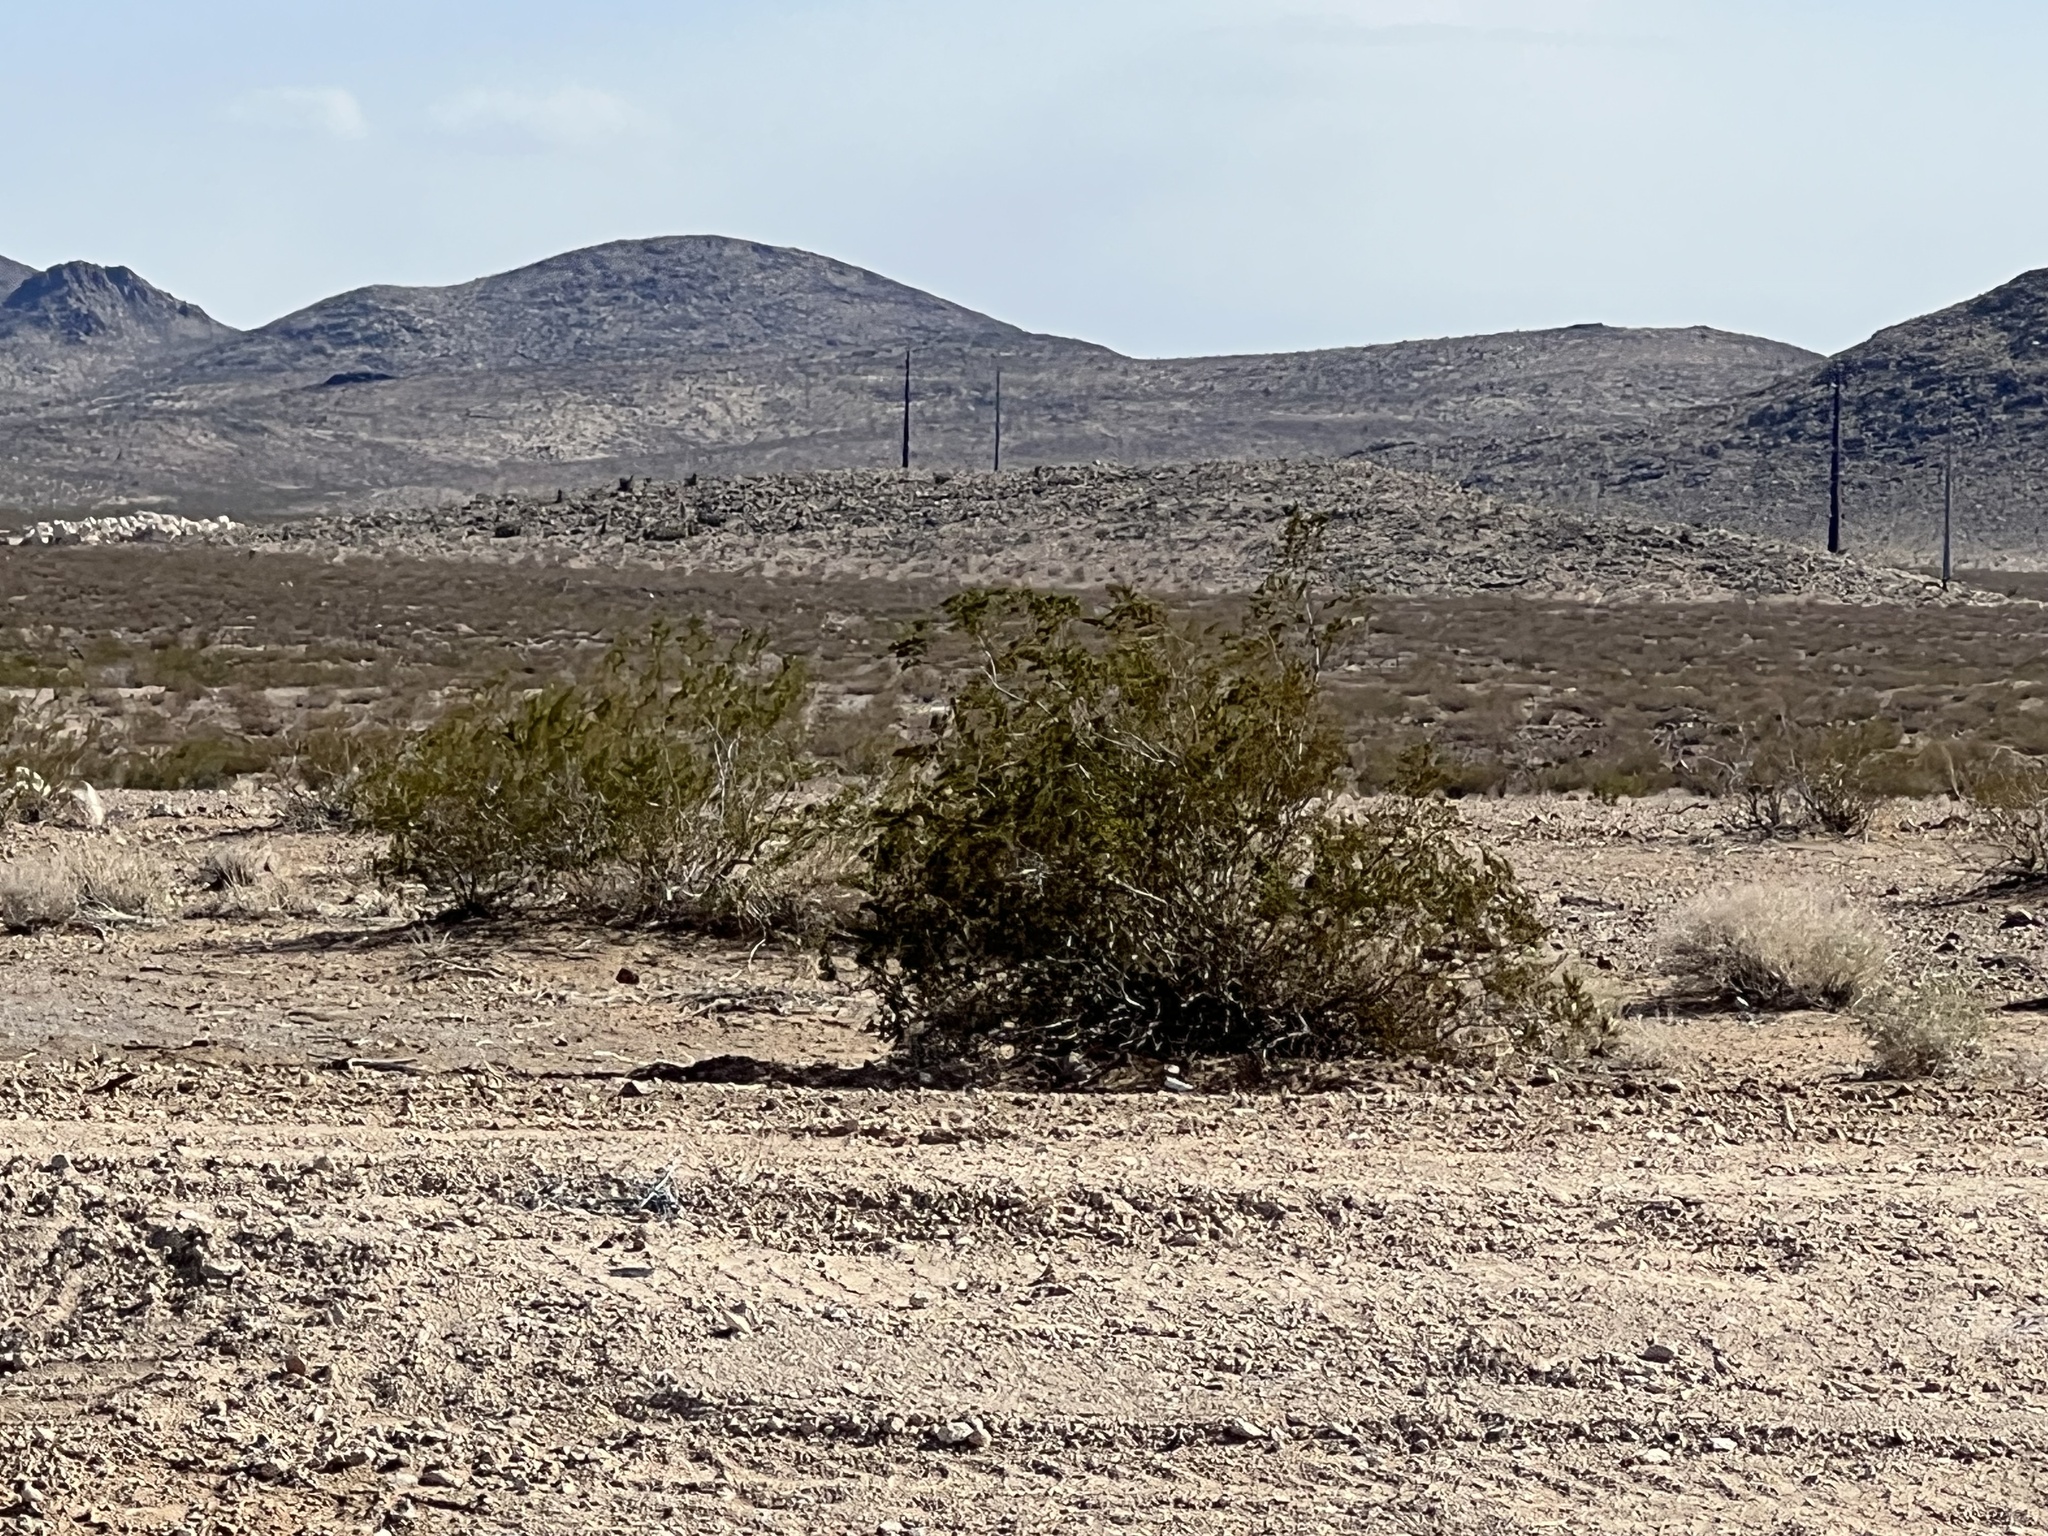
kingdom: Plantae
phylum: Tracheophyta
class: Magnoliopsida
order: Zygophyllales
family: Zygophyllaceae
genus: Larrea
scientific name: Larrea tridentata
